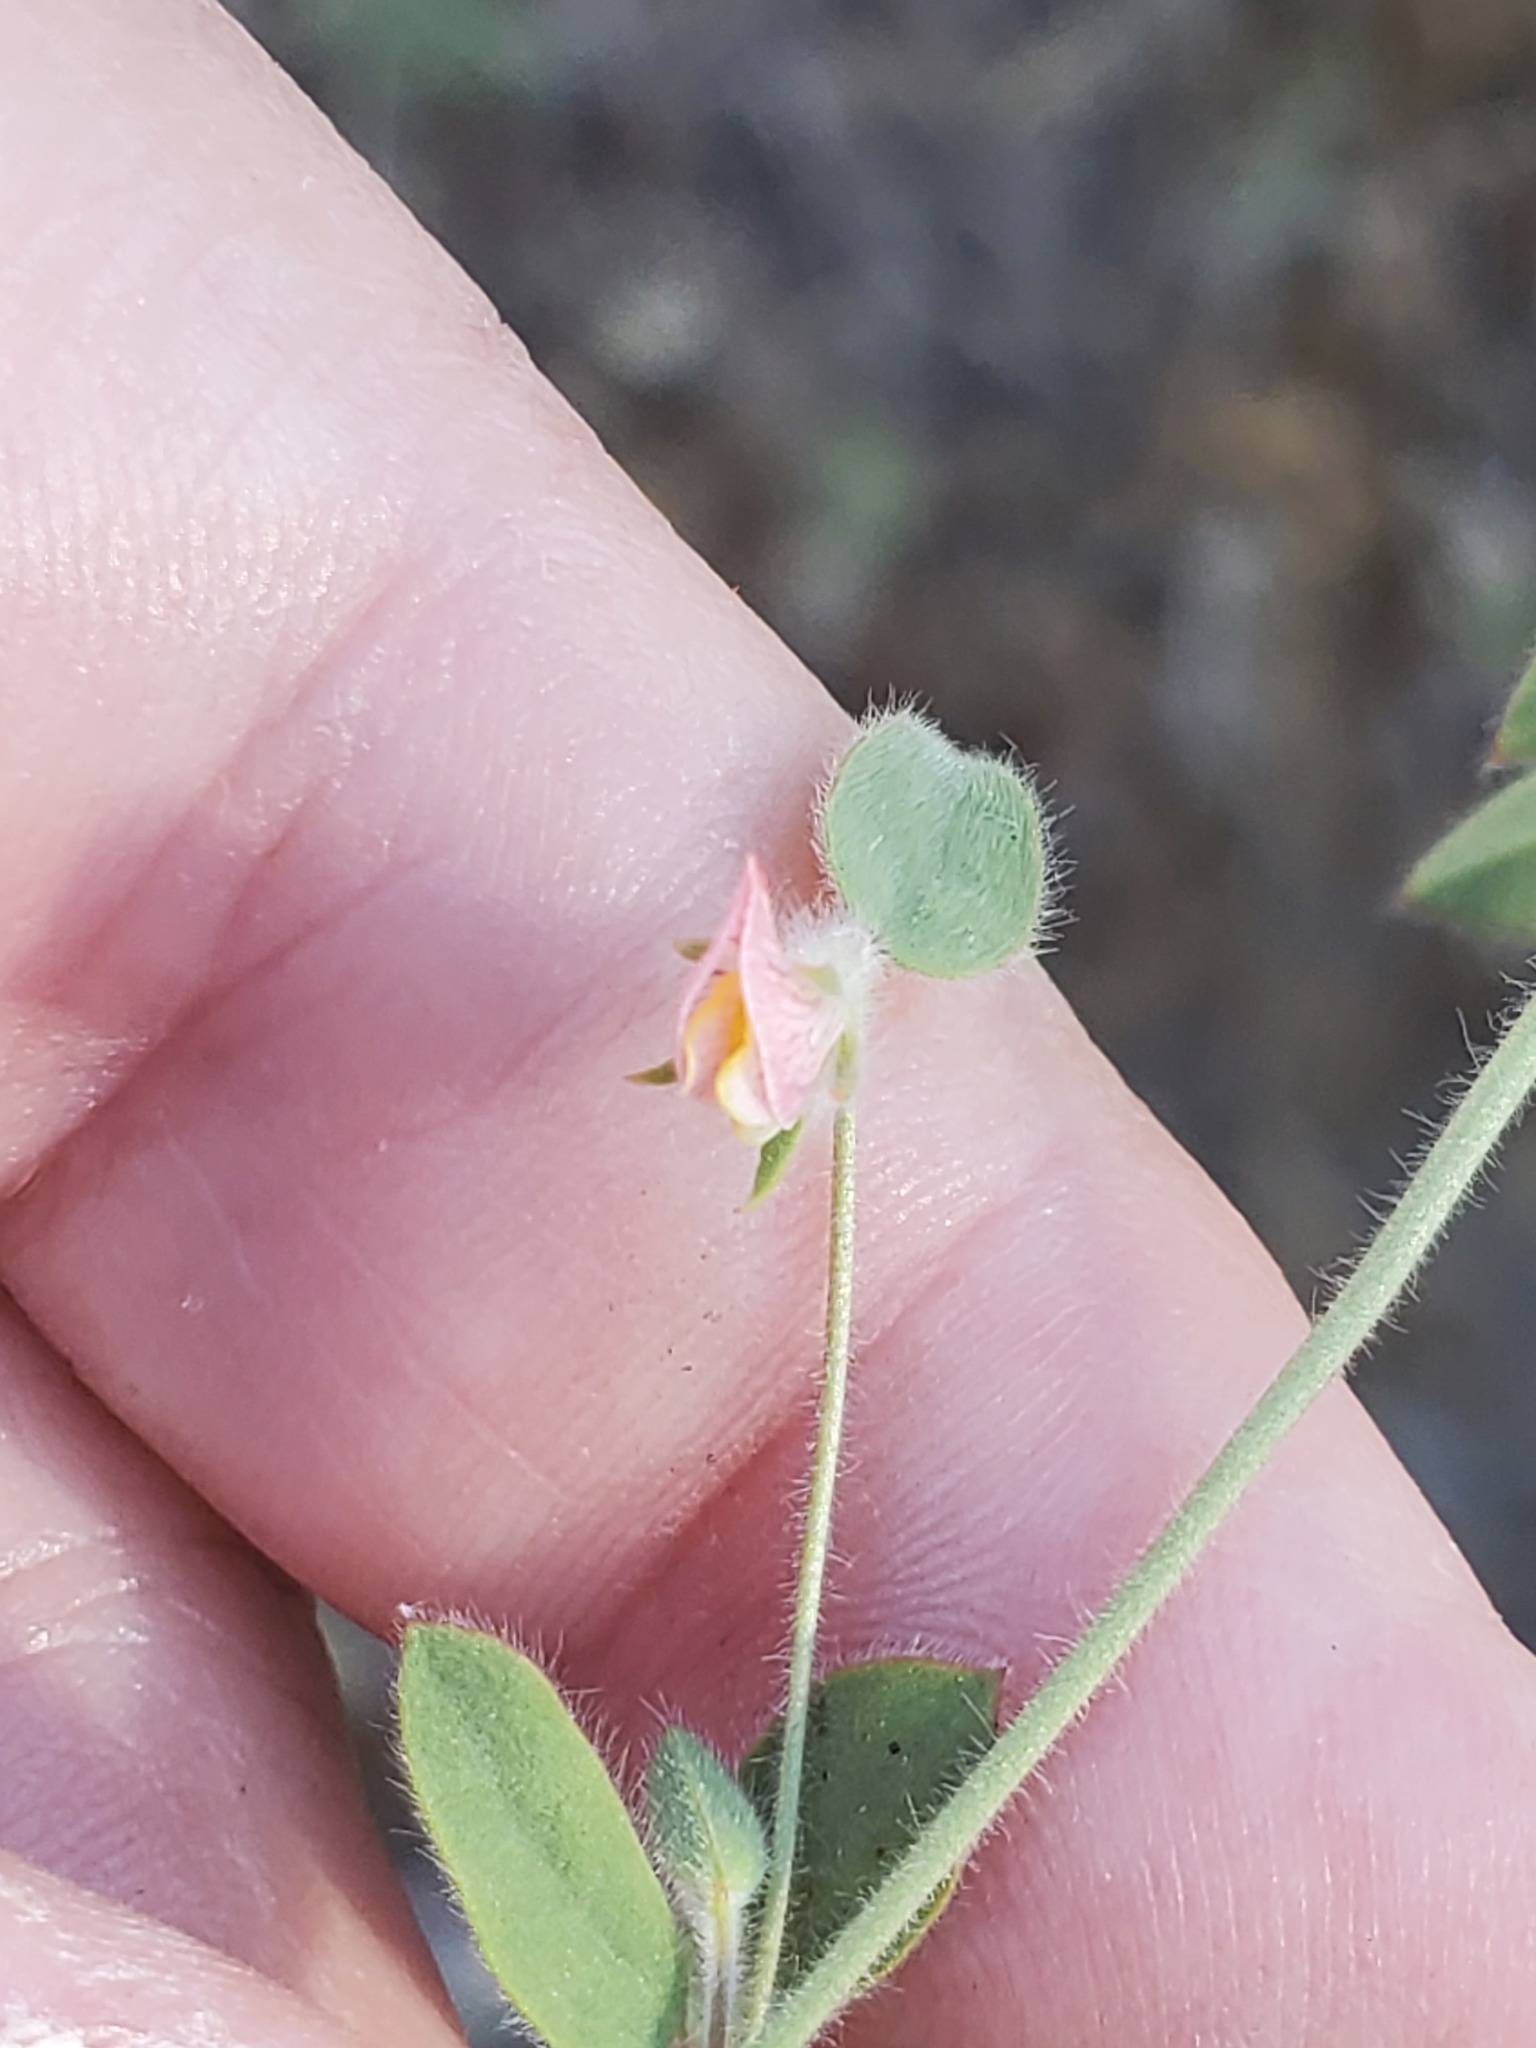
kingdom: Plantae
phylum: Tracheophyta
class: Magnoliopsida
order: Fabales
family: Fabaceae
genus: Acmispon
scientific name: Acmispon americanus
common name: American bird's-foot trefoil
